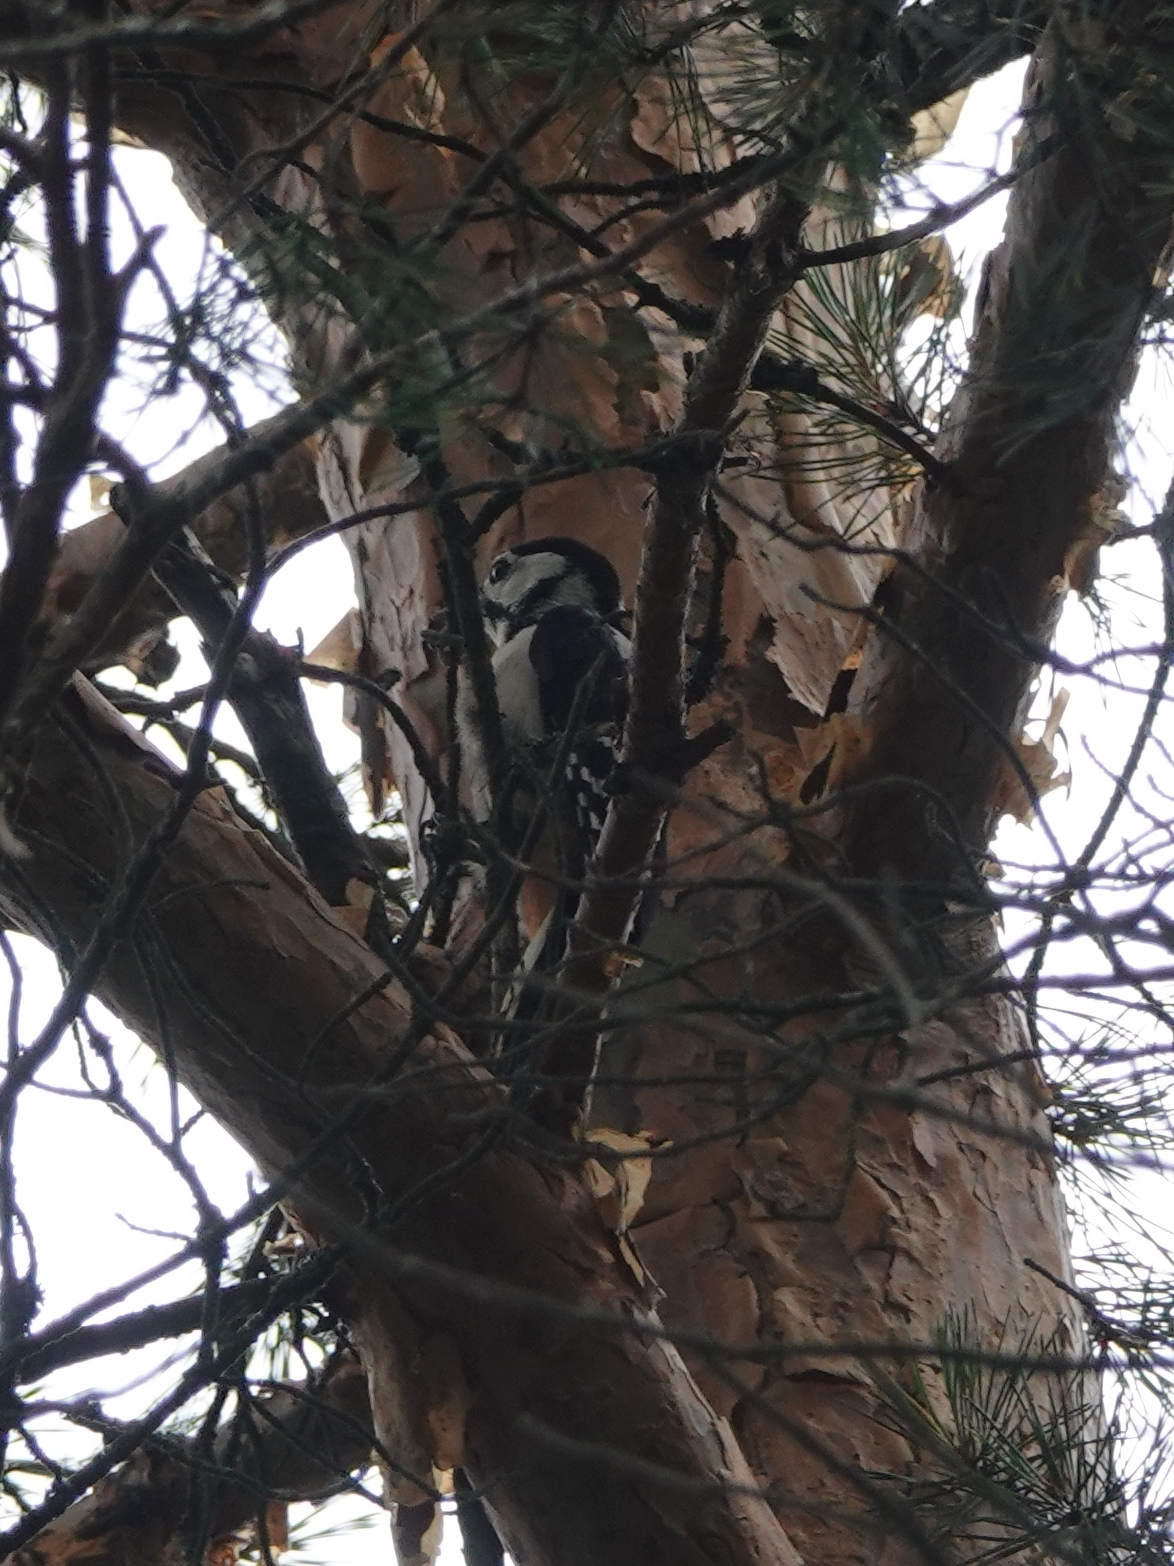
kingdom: Animalia
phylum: Chordata
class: Aves
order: Piciformes
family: Picidae
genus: Dendrocopos
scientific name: Dendrocopos major
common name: Great spotted woodpecker
